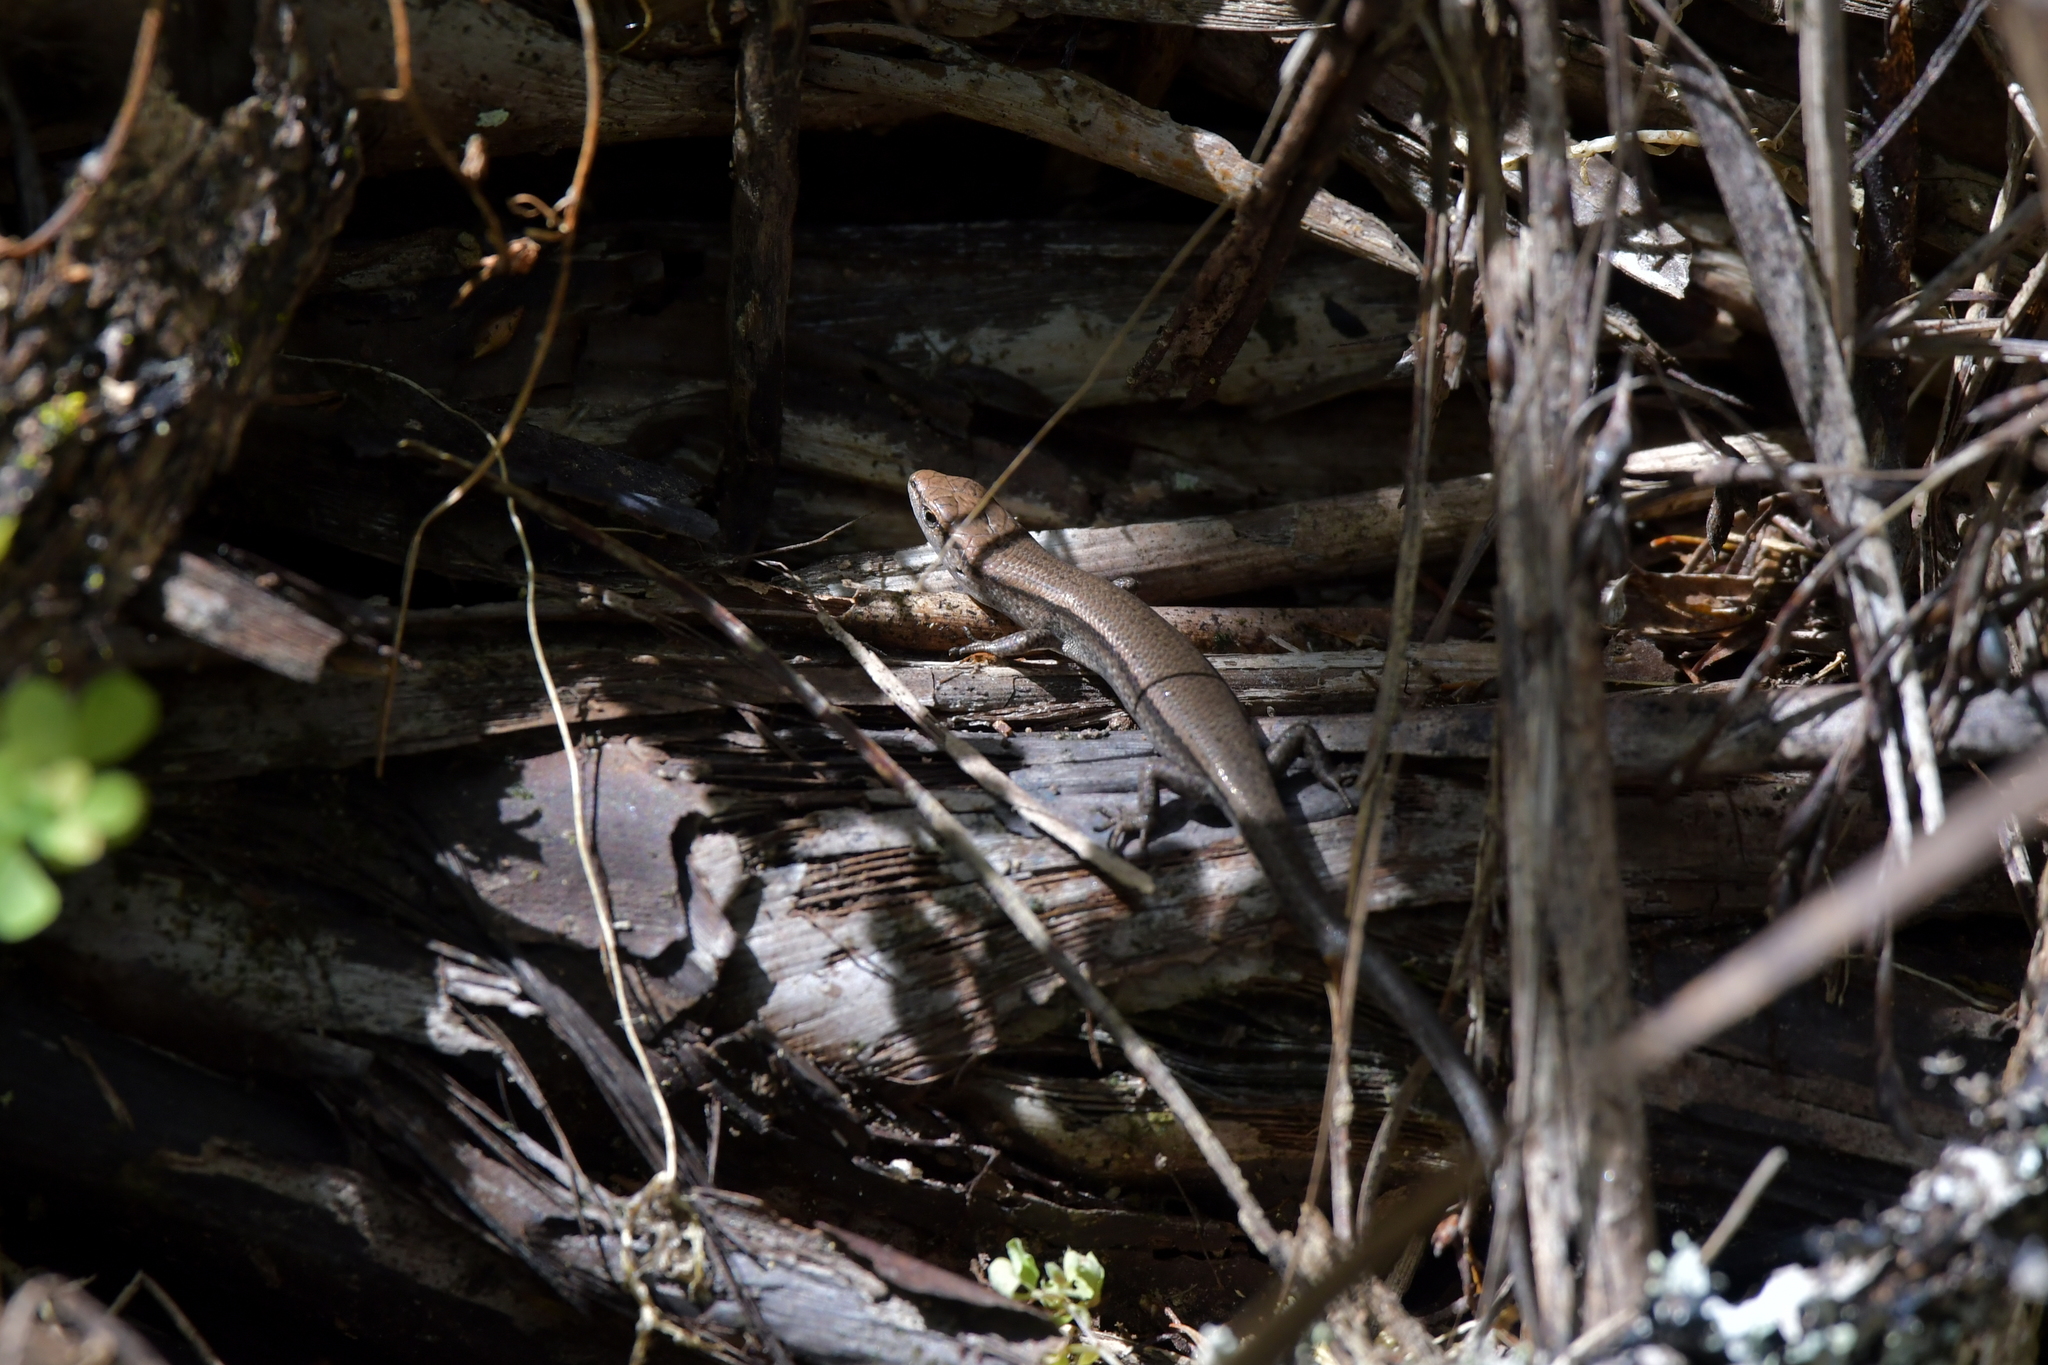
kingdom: Animalia
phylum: Chordata
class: Squamata
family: Scincidae
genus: Lampropholis
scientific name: Lampropholis delicata
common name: Plague skink
